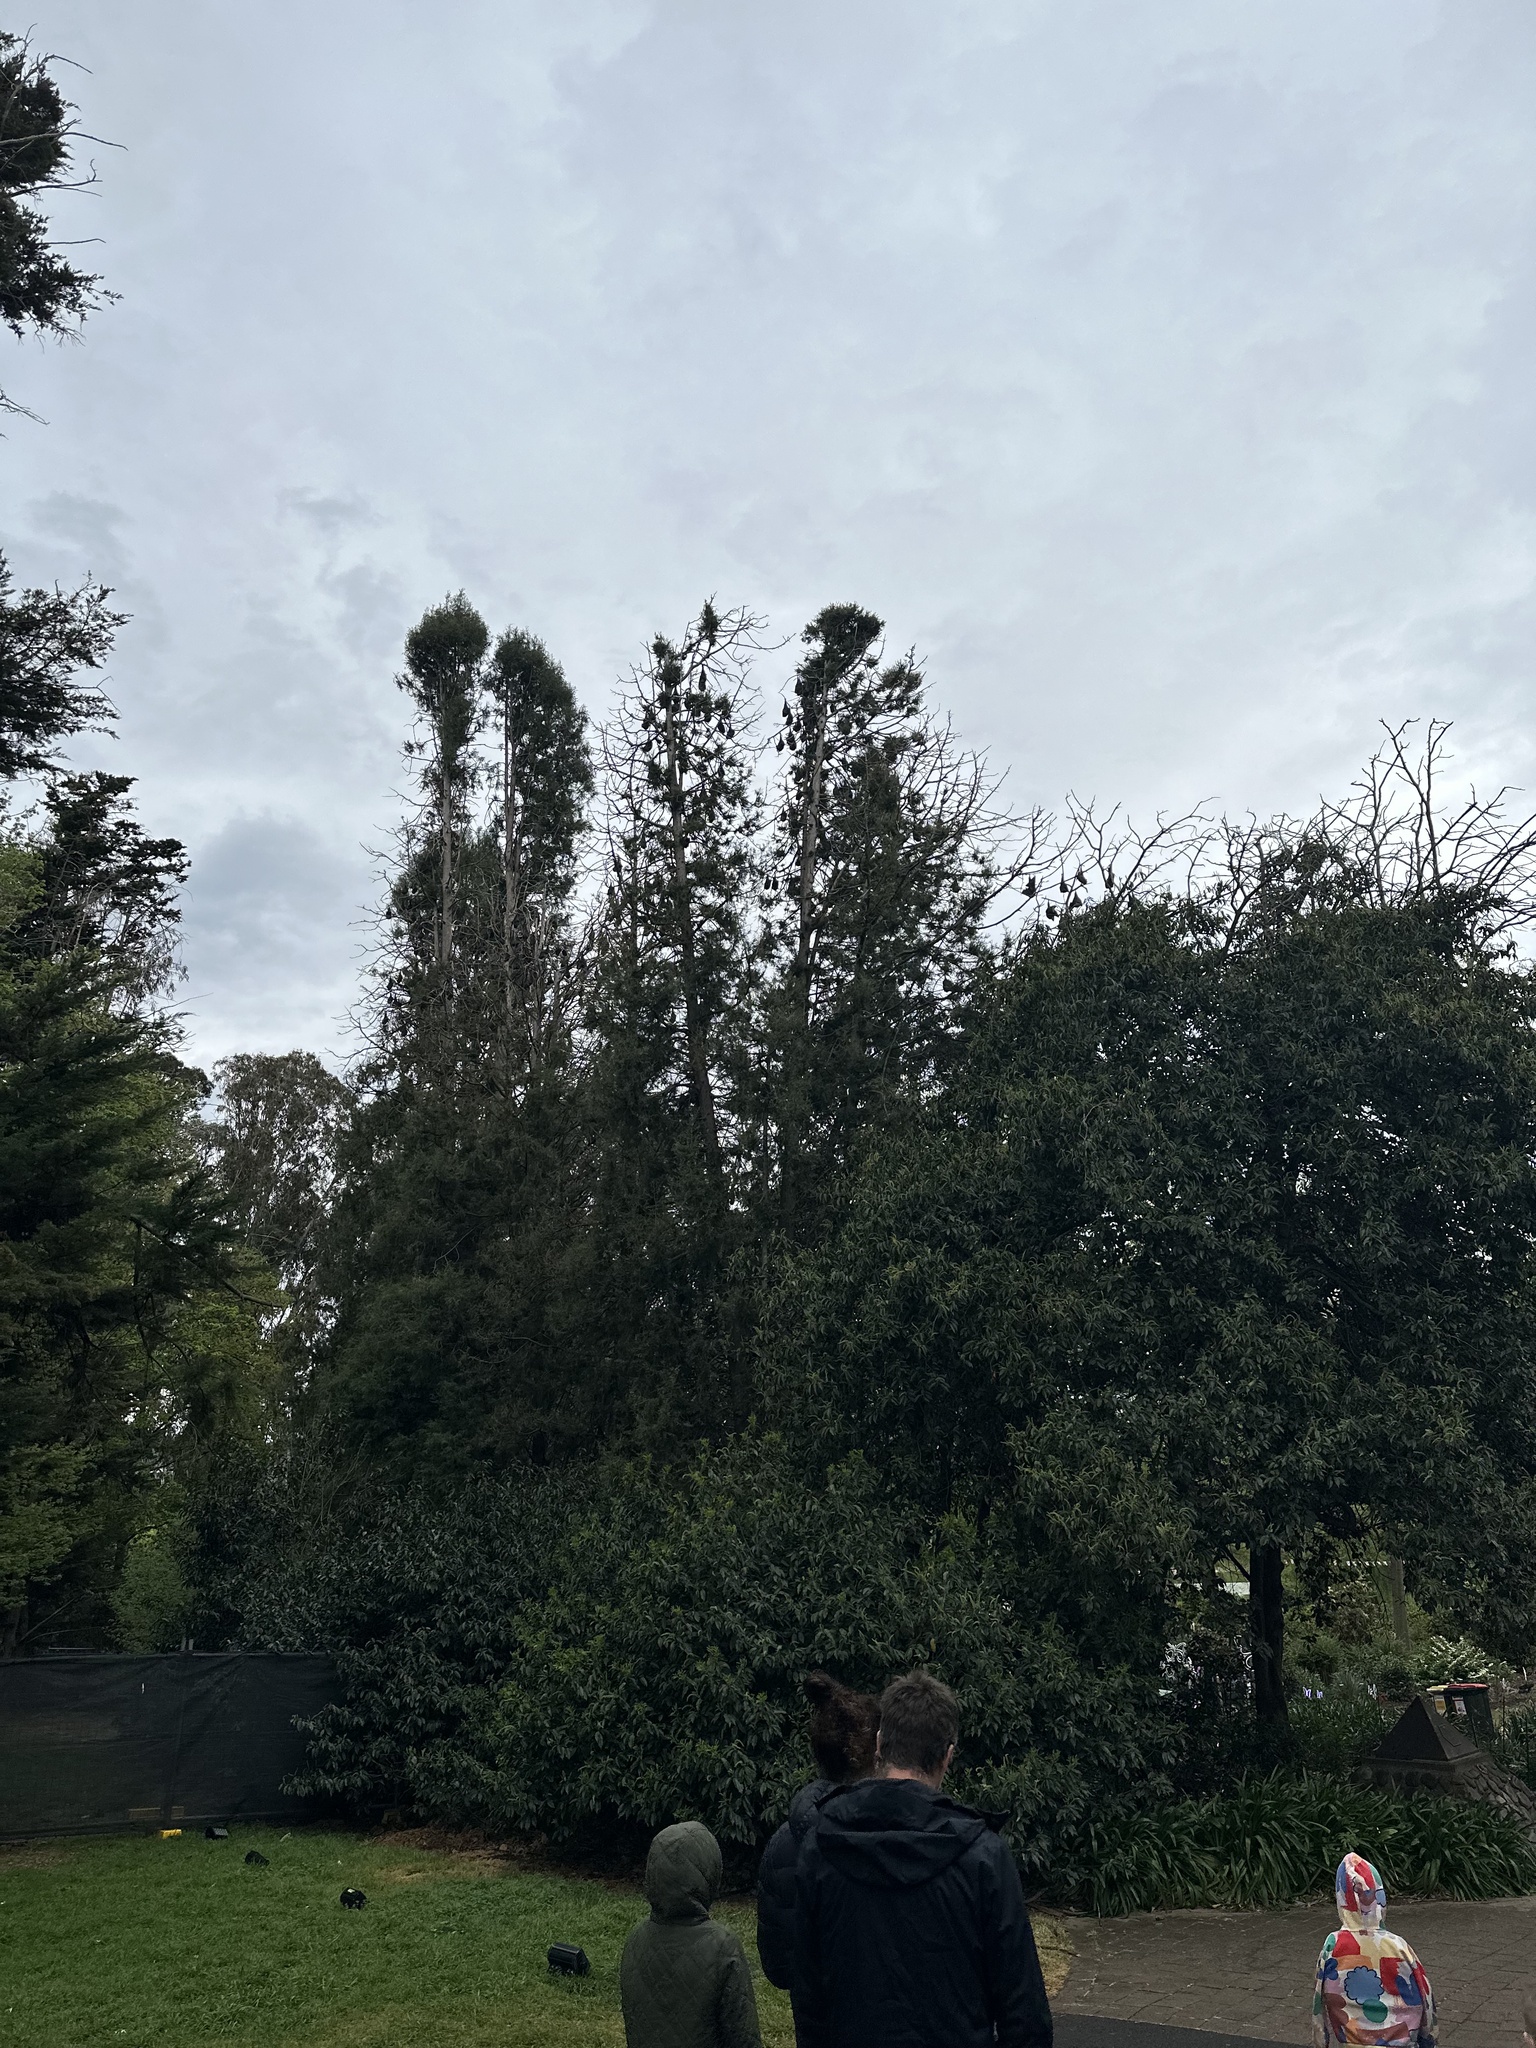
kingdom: Animalia
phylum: Chordata
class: Mammalia
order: Chiroptera
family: Pteropodidae
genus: Pteropus
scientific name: Pteropus poliocephalus
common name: Gray-headed flying fox
